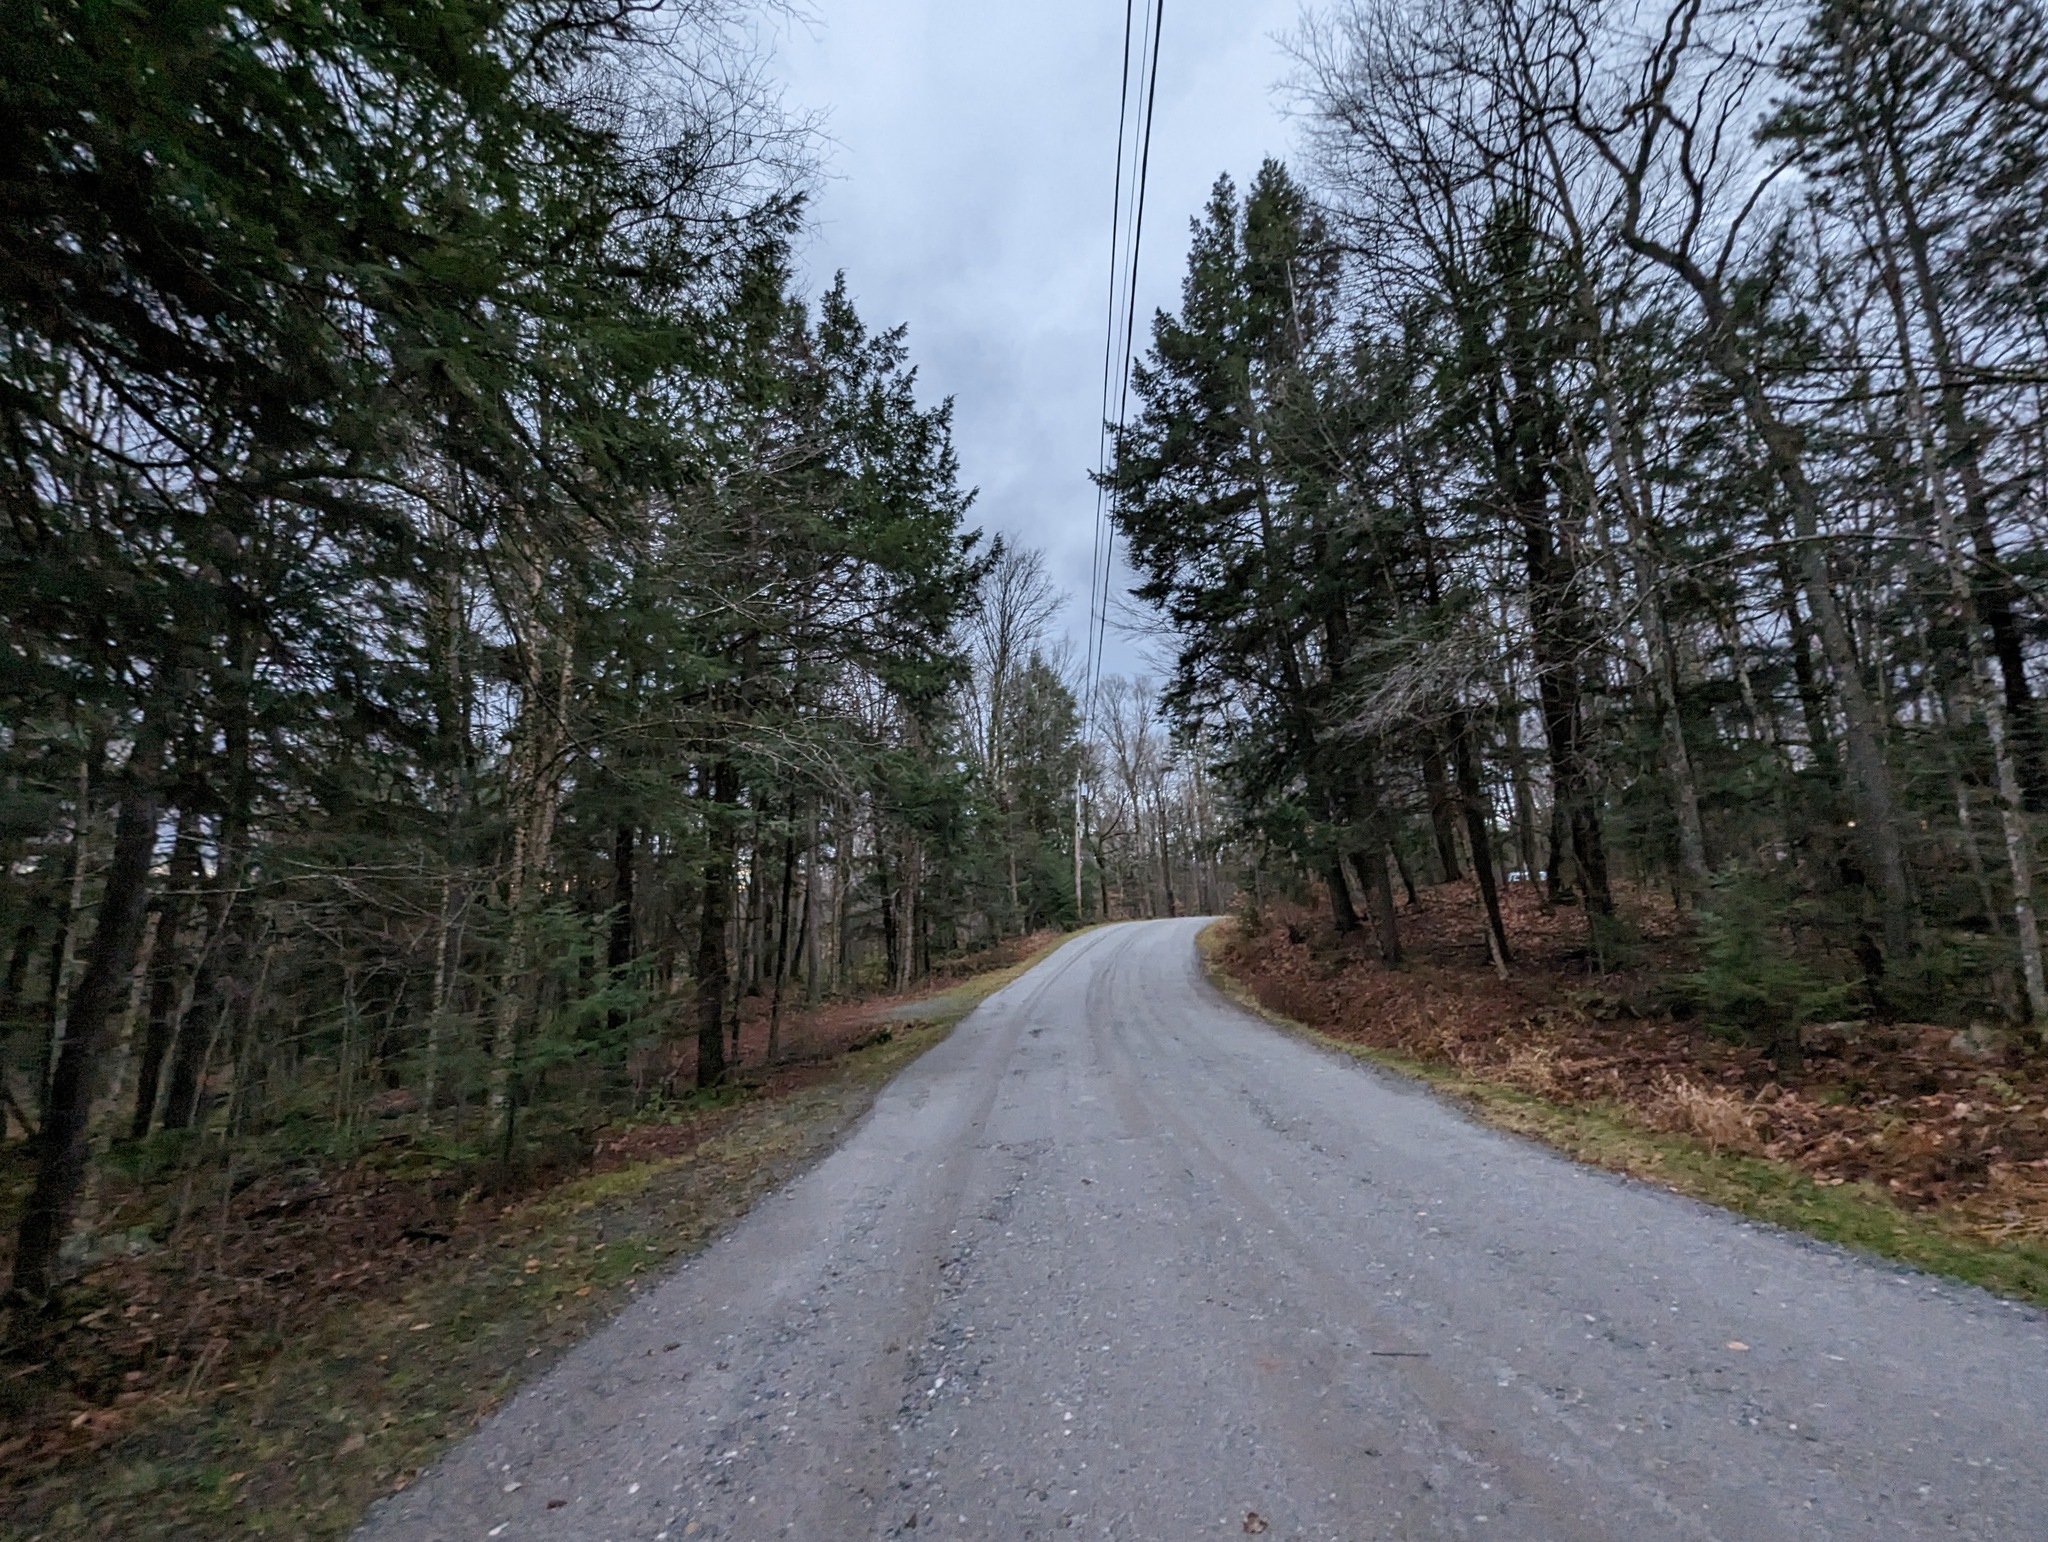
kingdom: Plantae
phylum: Tracheophyta
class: Pinopsida
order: Pinales
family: Pinaceae
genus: Tsuga
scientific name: Tsuga canadensis
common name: Eastern hemlock
